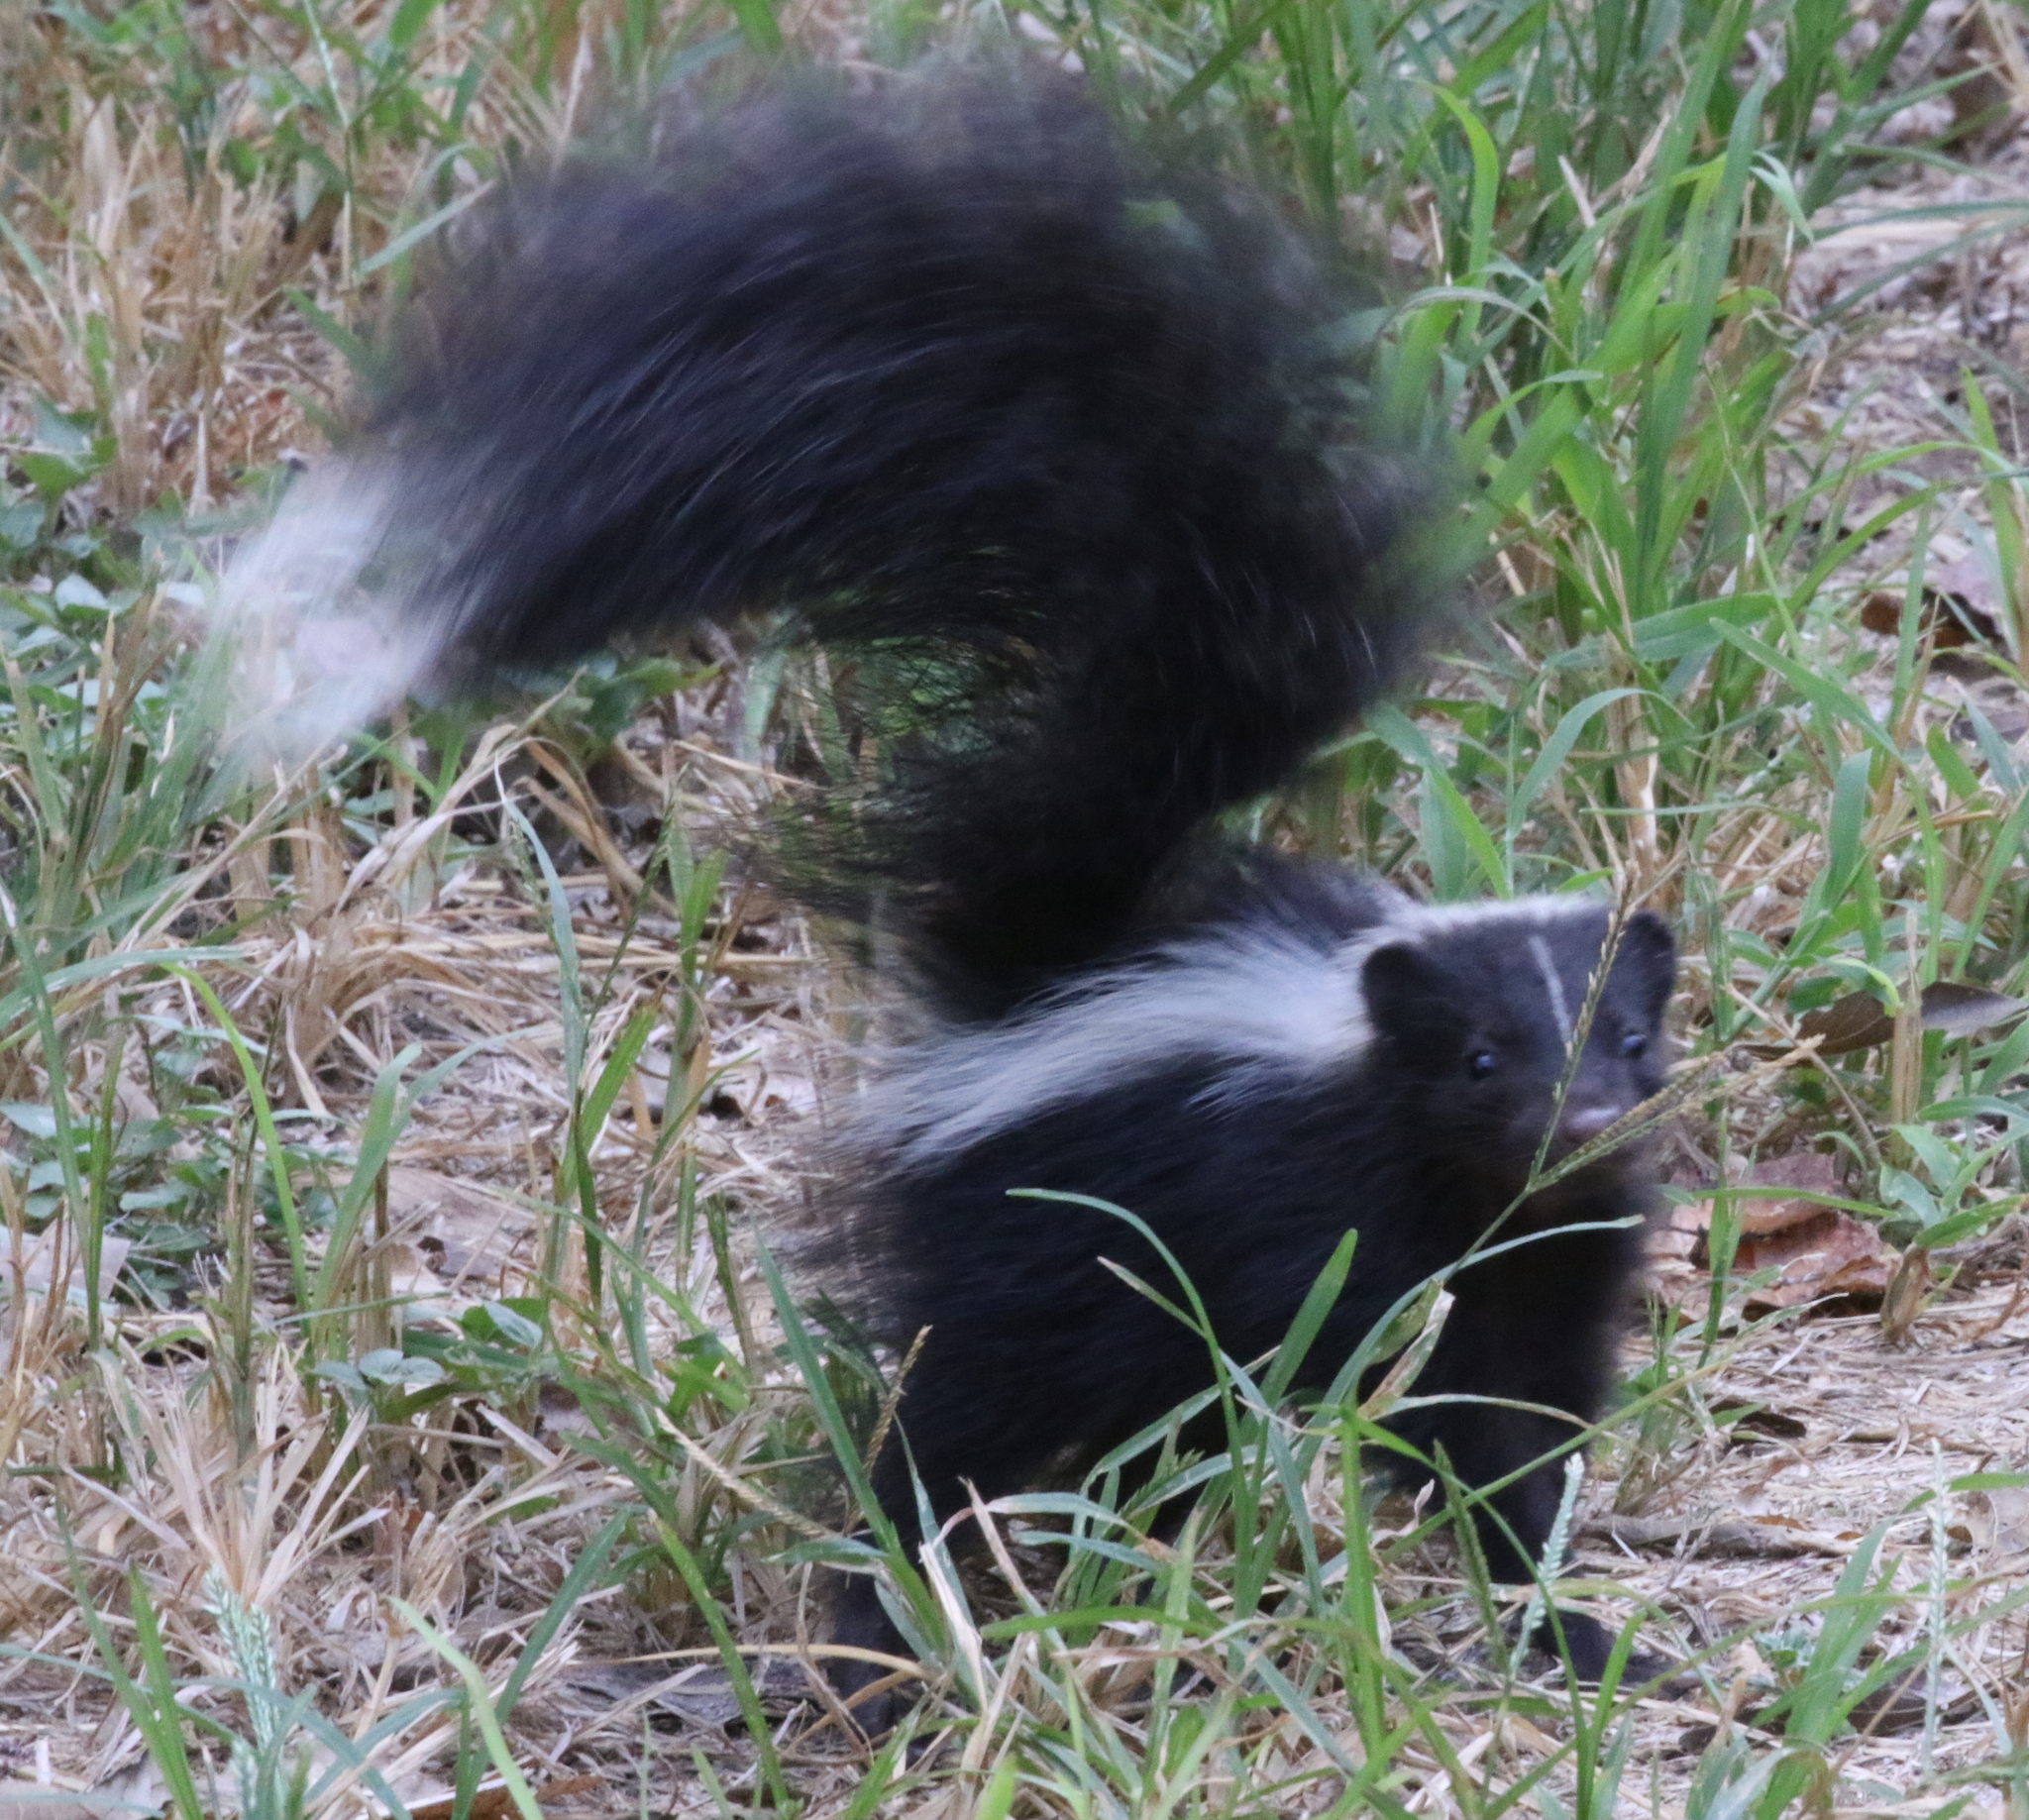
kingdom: Animalia
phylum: Chordata
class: Mammalia
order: Carnivora
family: Mephitidae
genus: Mephitis
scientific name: Mephitis mephitis
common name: Striped skunk
